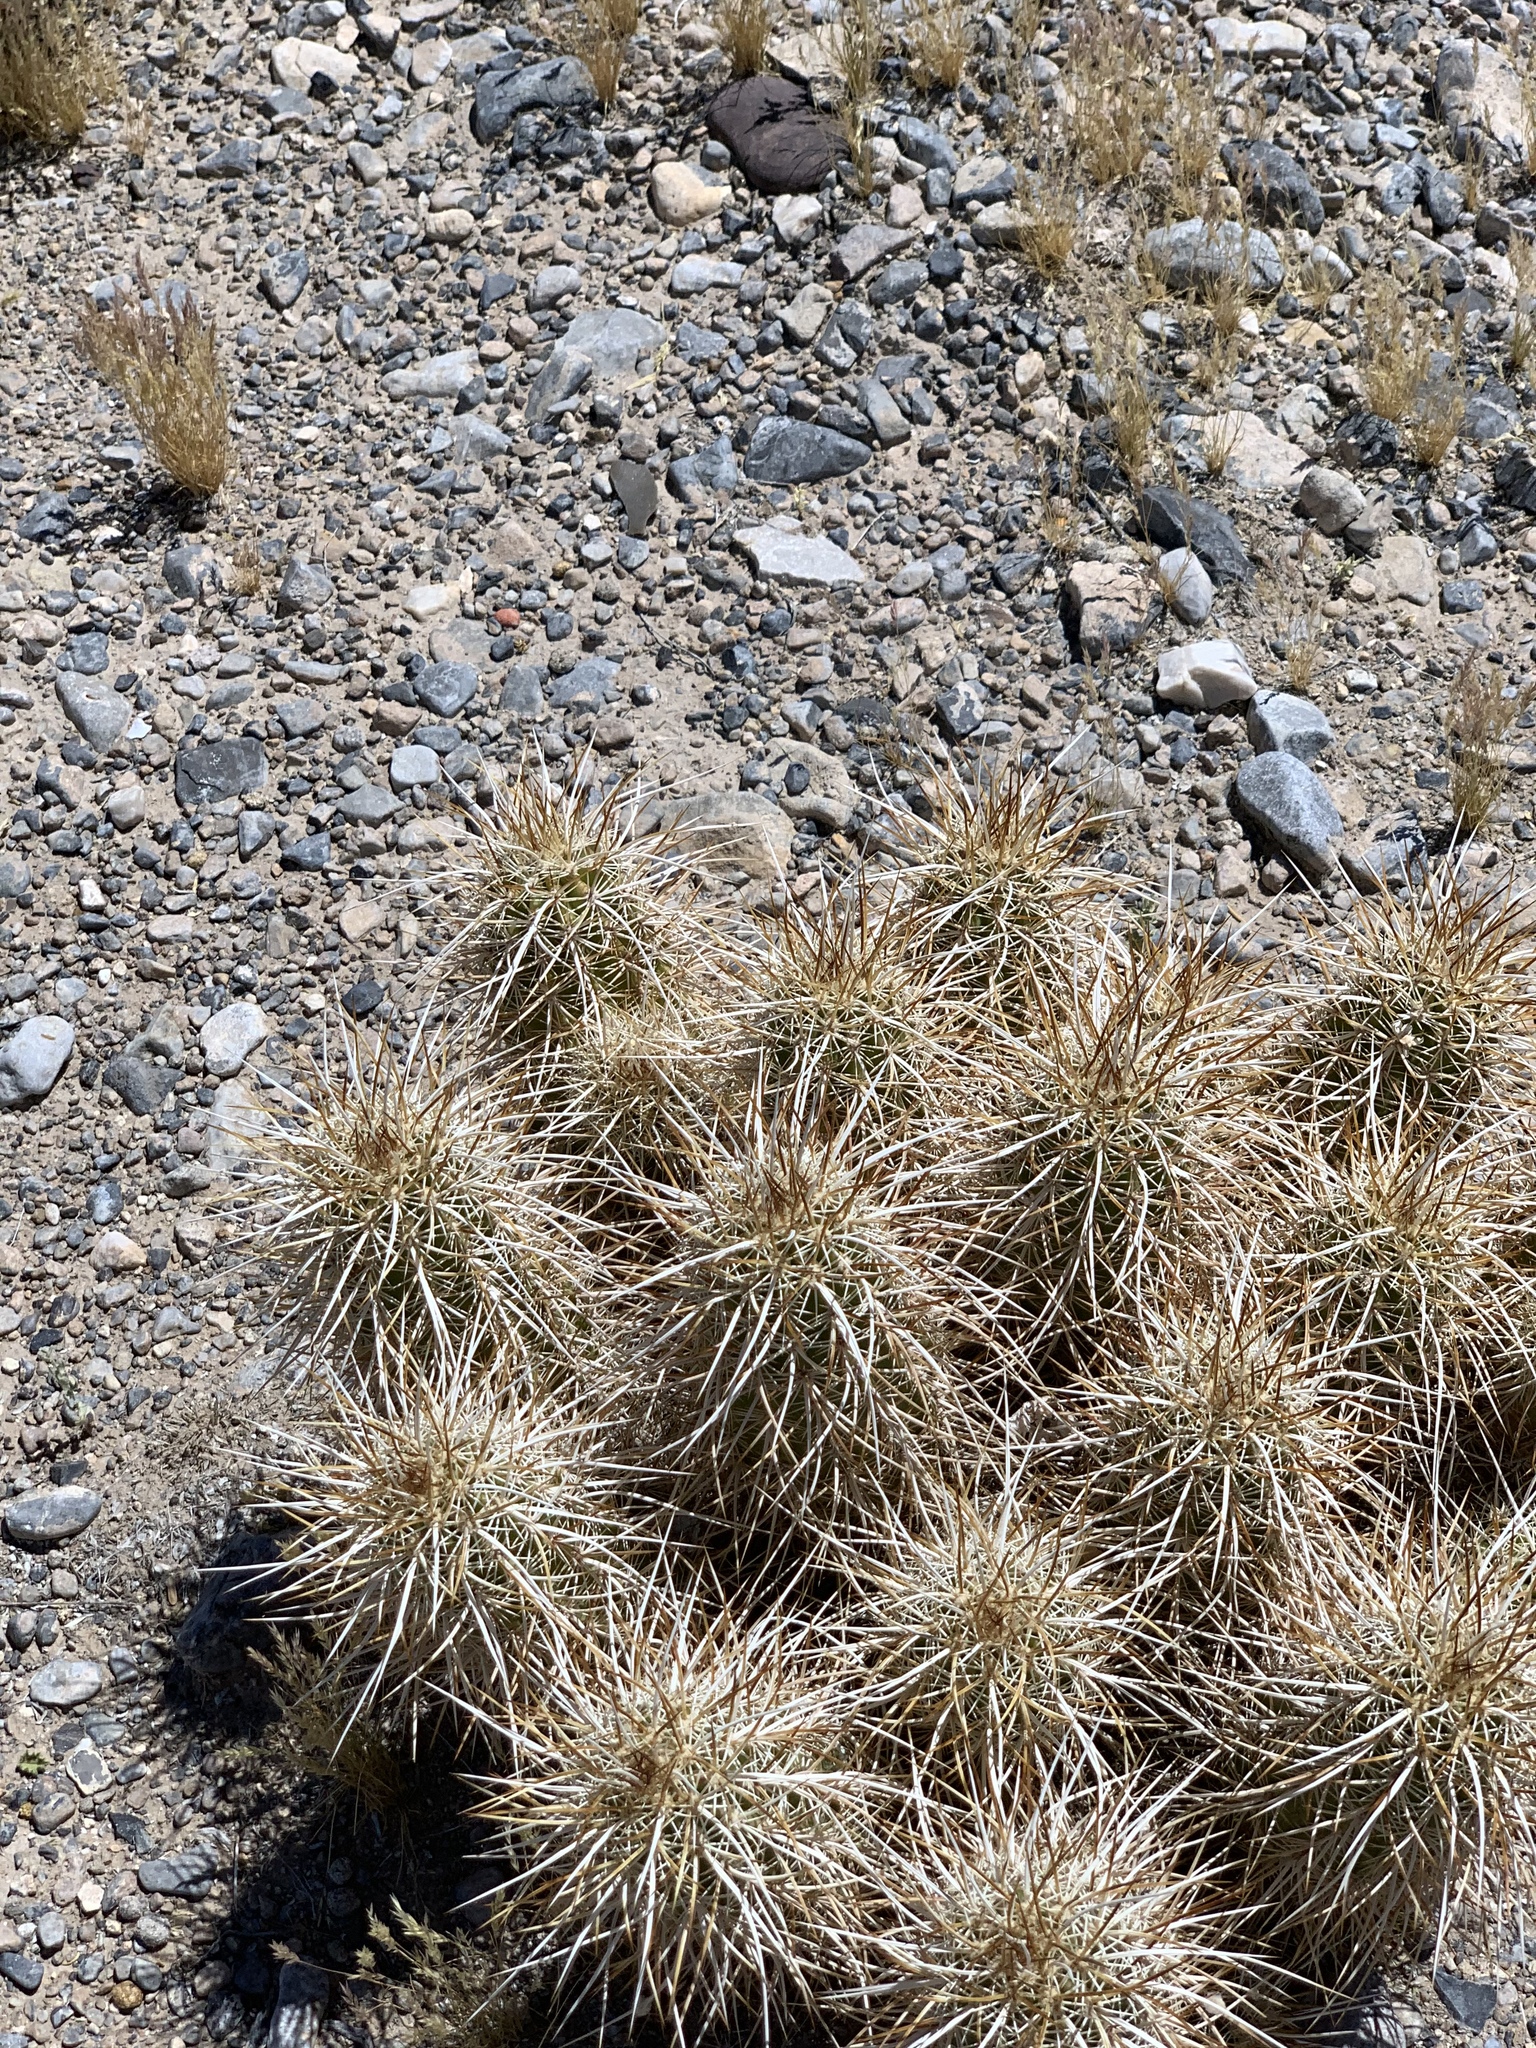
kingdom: Plantae
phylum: Tracheophyta
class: Magnoliopsida
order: Caryophyllales
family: Cactaceae
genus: Echinocereus
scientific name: Echinocereus engelmannii
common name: Engelmann's hedgehog cactus
